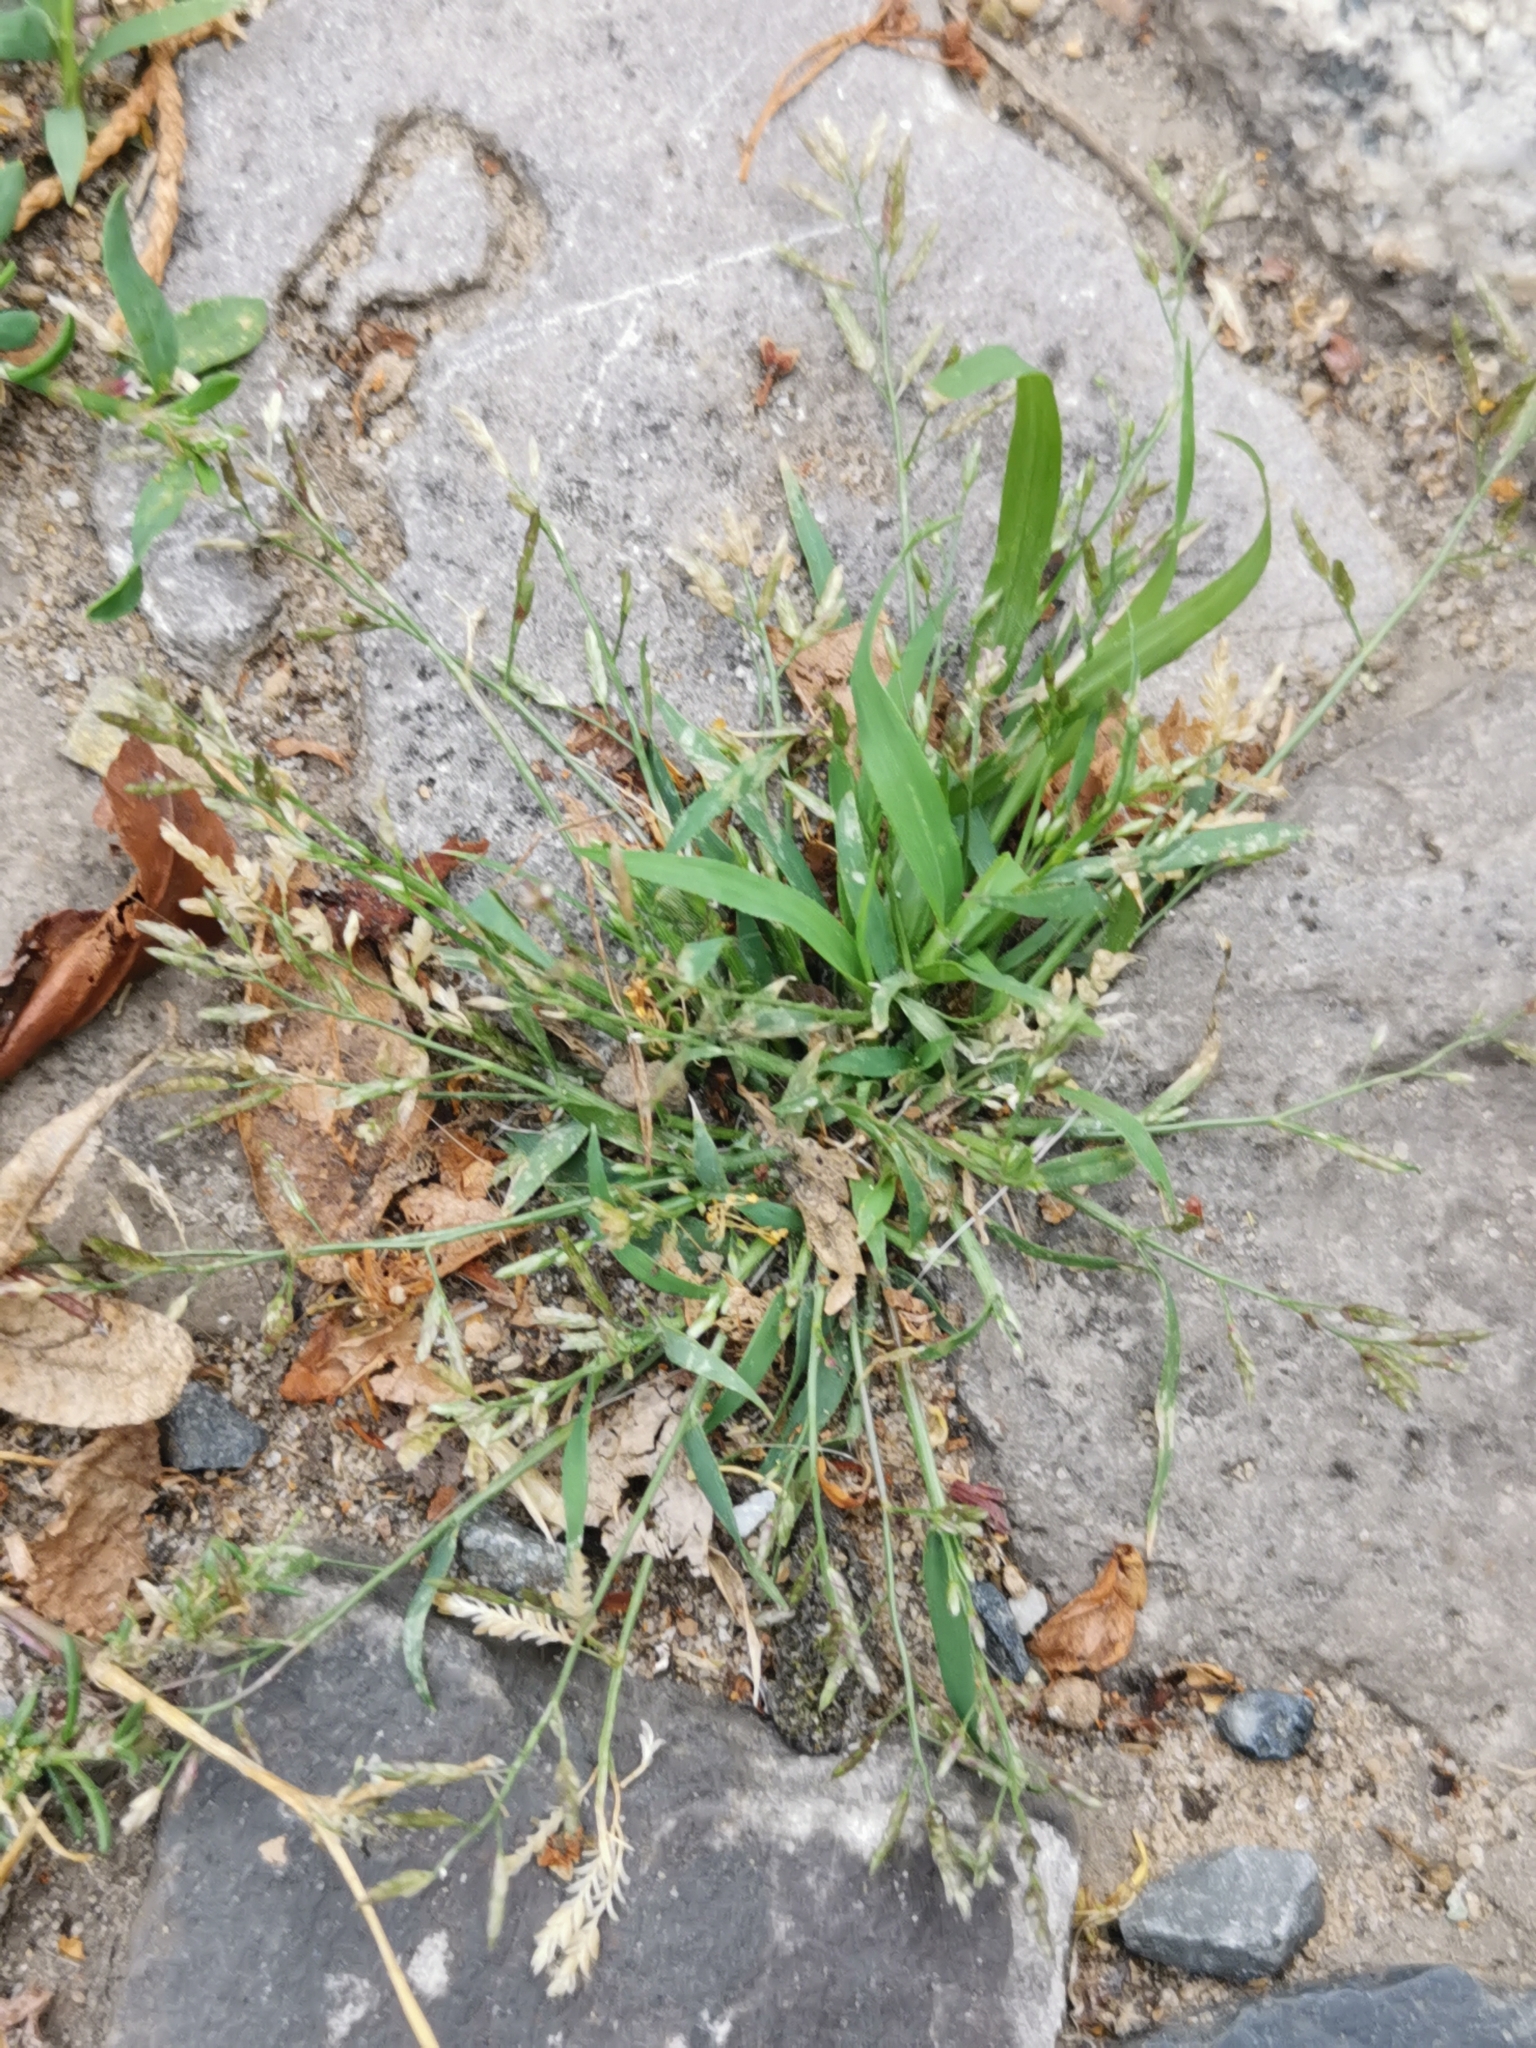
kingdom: Plantae
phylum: Tracheophyta
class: Liliopsida
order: Poales
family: Poaceae
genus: Eragrostis
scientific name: Eragrostis minor
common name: Small love-grass
